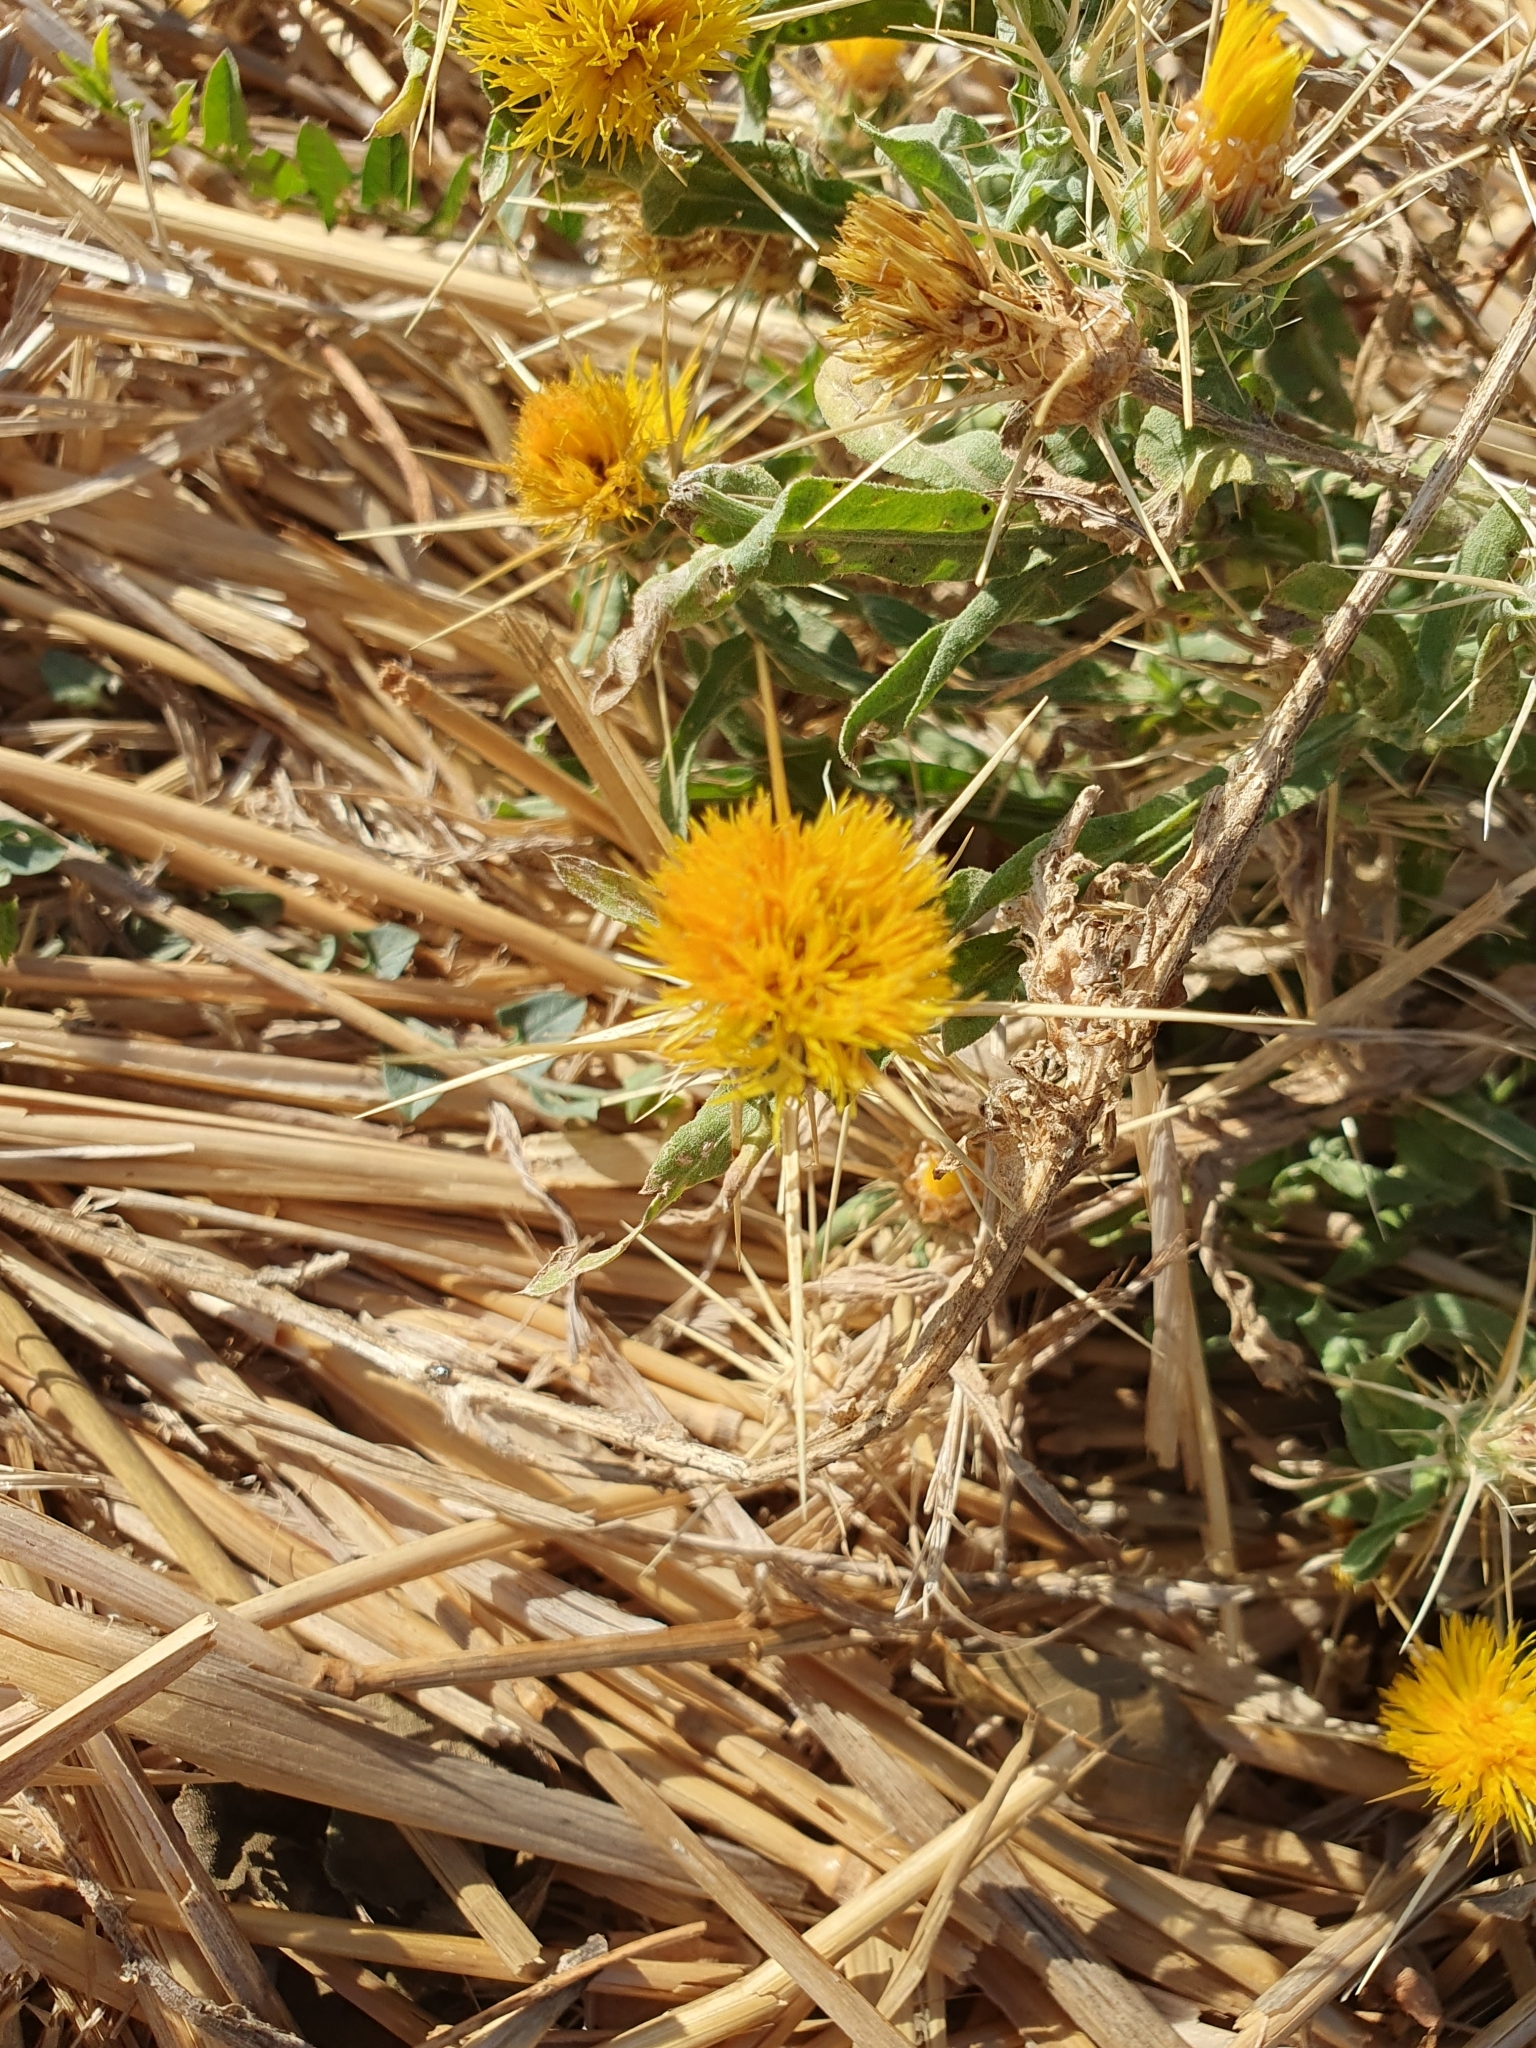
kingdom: Plantae
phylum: Tracheophyta
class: Magnoliopsida
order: Asterales
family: Asteraceae
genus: Centaurea
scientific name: Centaurea solstitialis
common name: Yellow star-thistle
